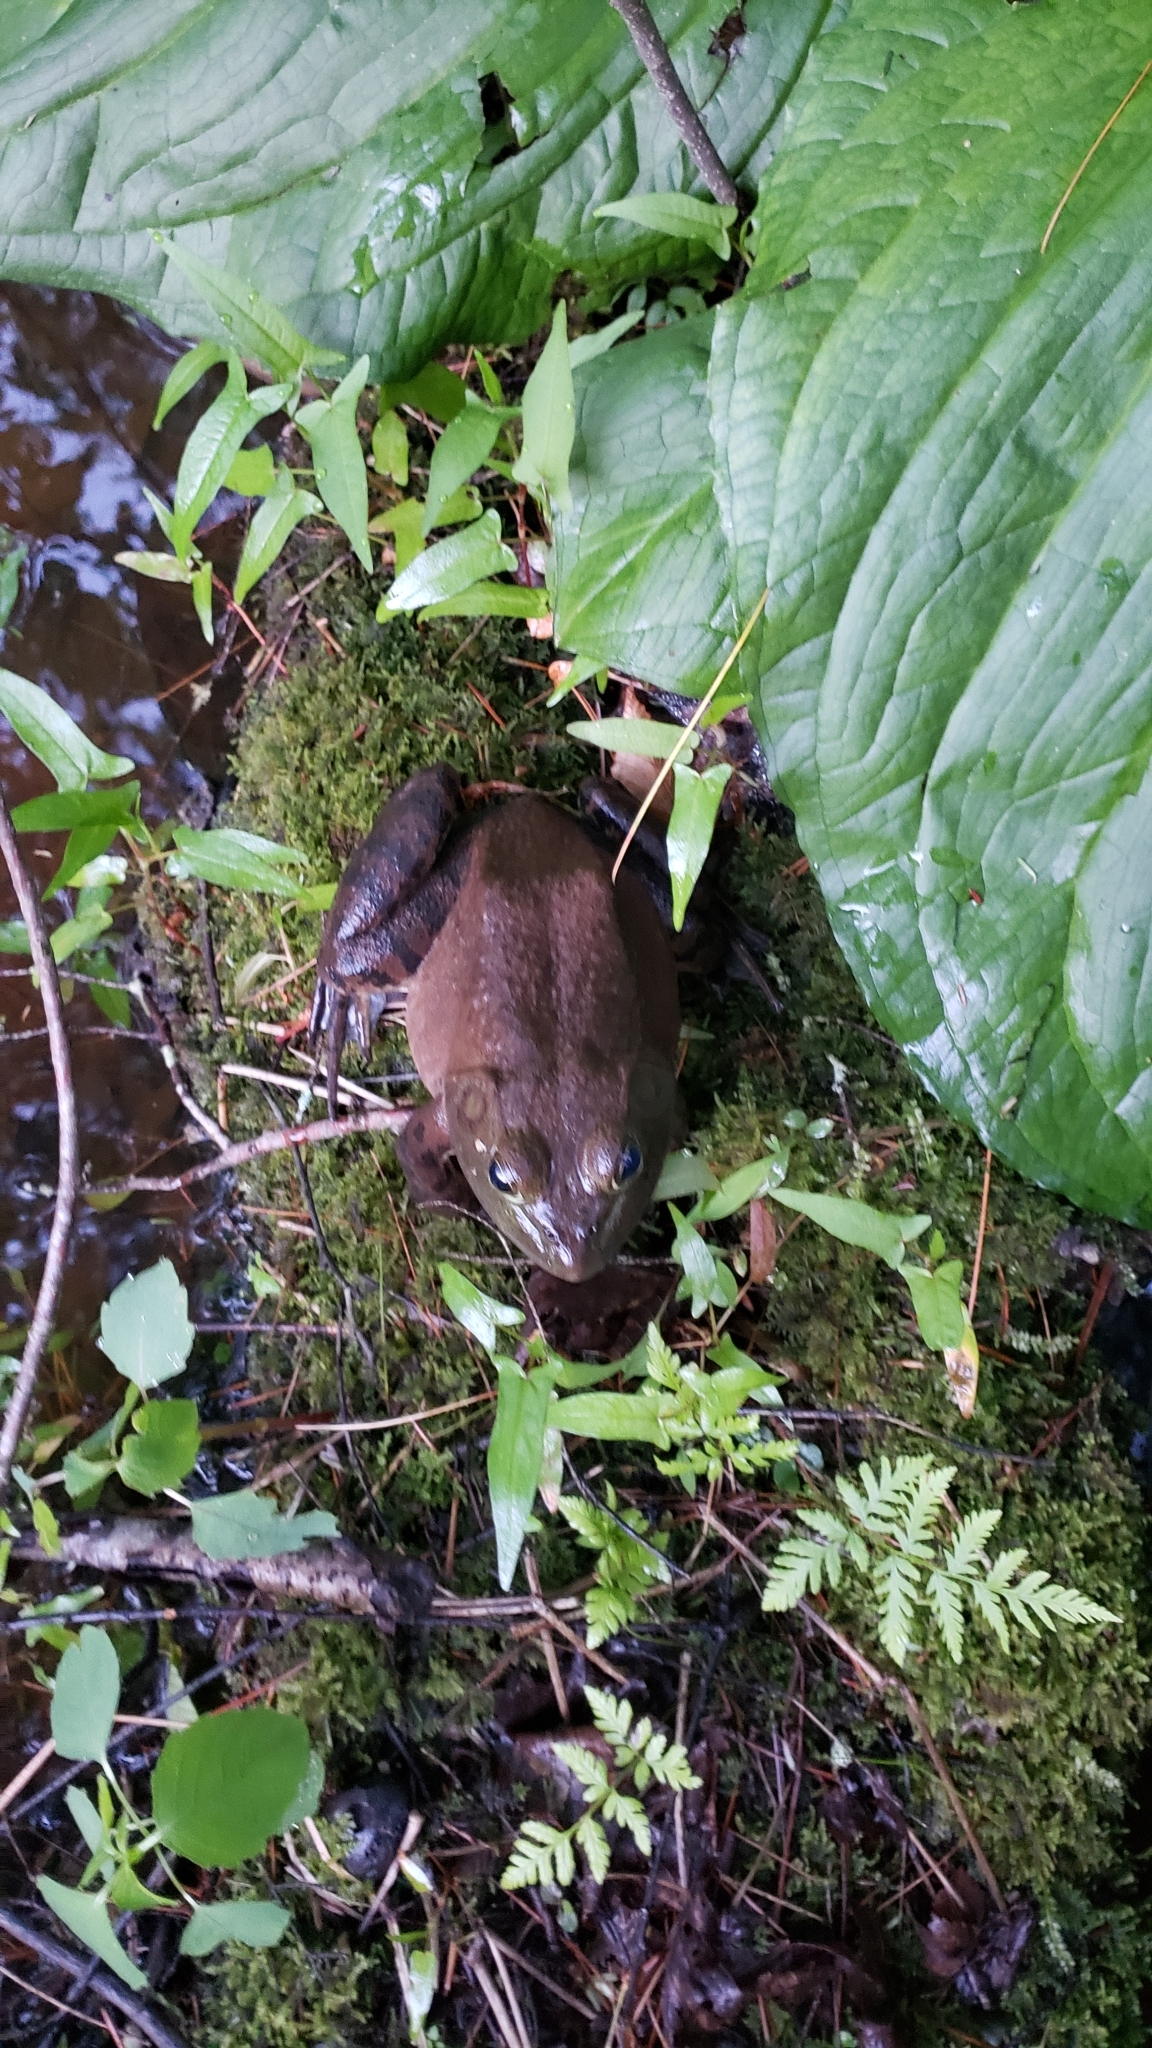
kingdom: Animalia
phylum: Chordata
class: Amphibia
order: Anura
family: Ranidae
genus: Lithobates
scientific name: Lithobates catesbeianus
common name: American bullfrog
